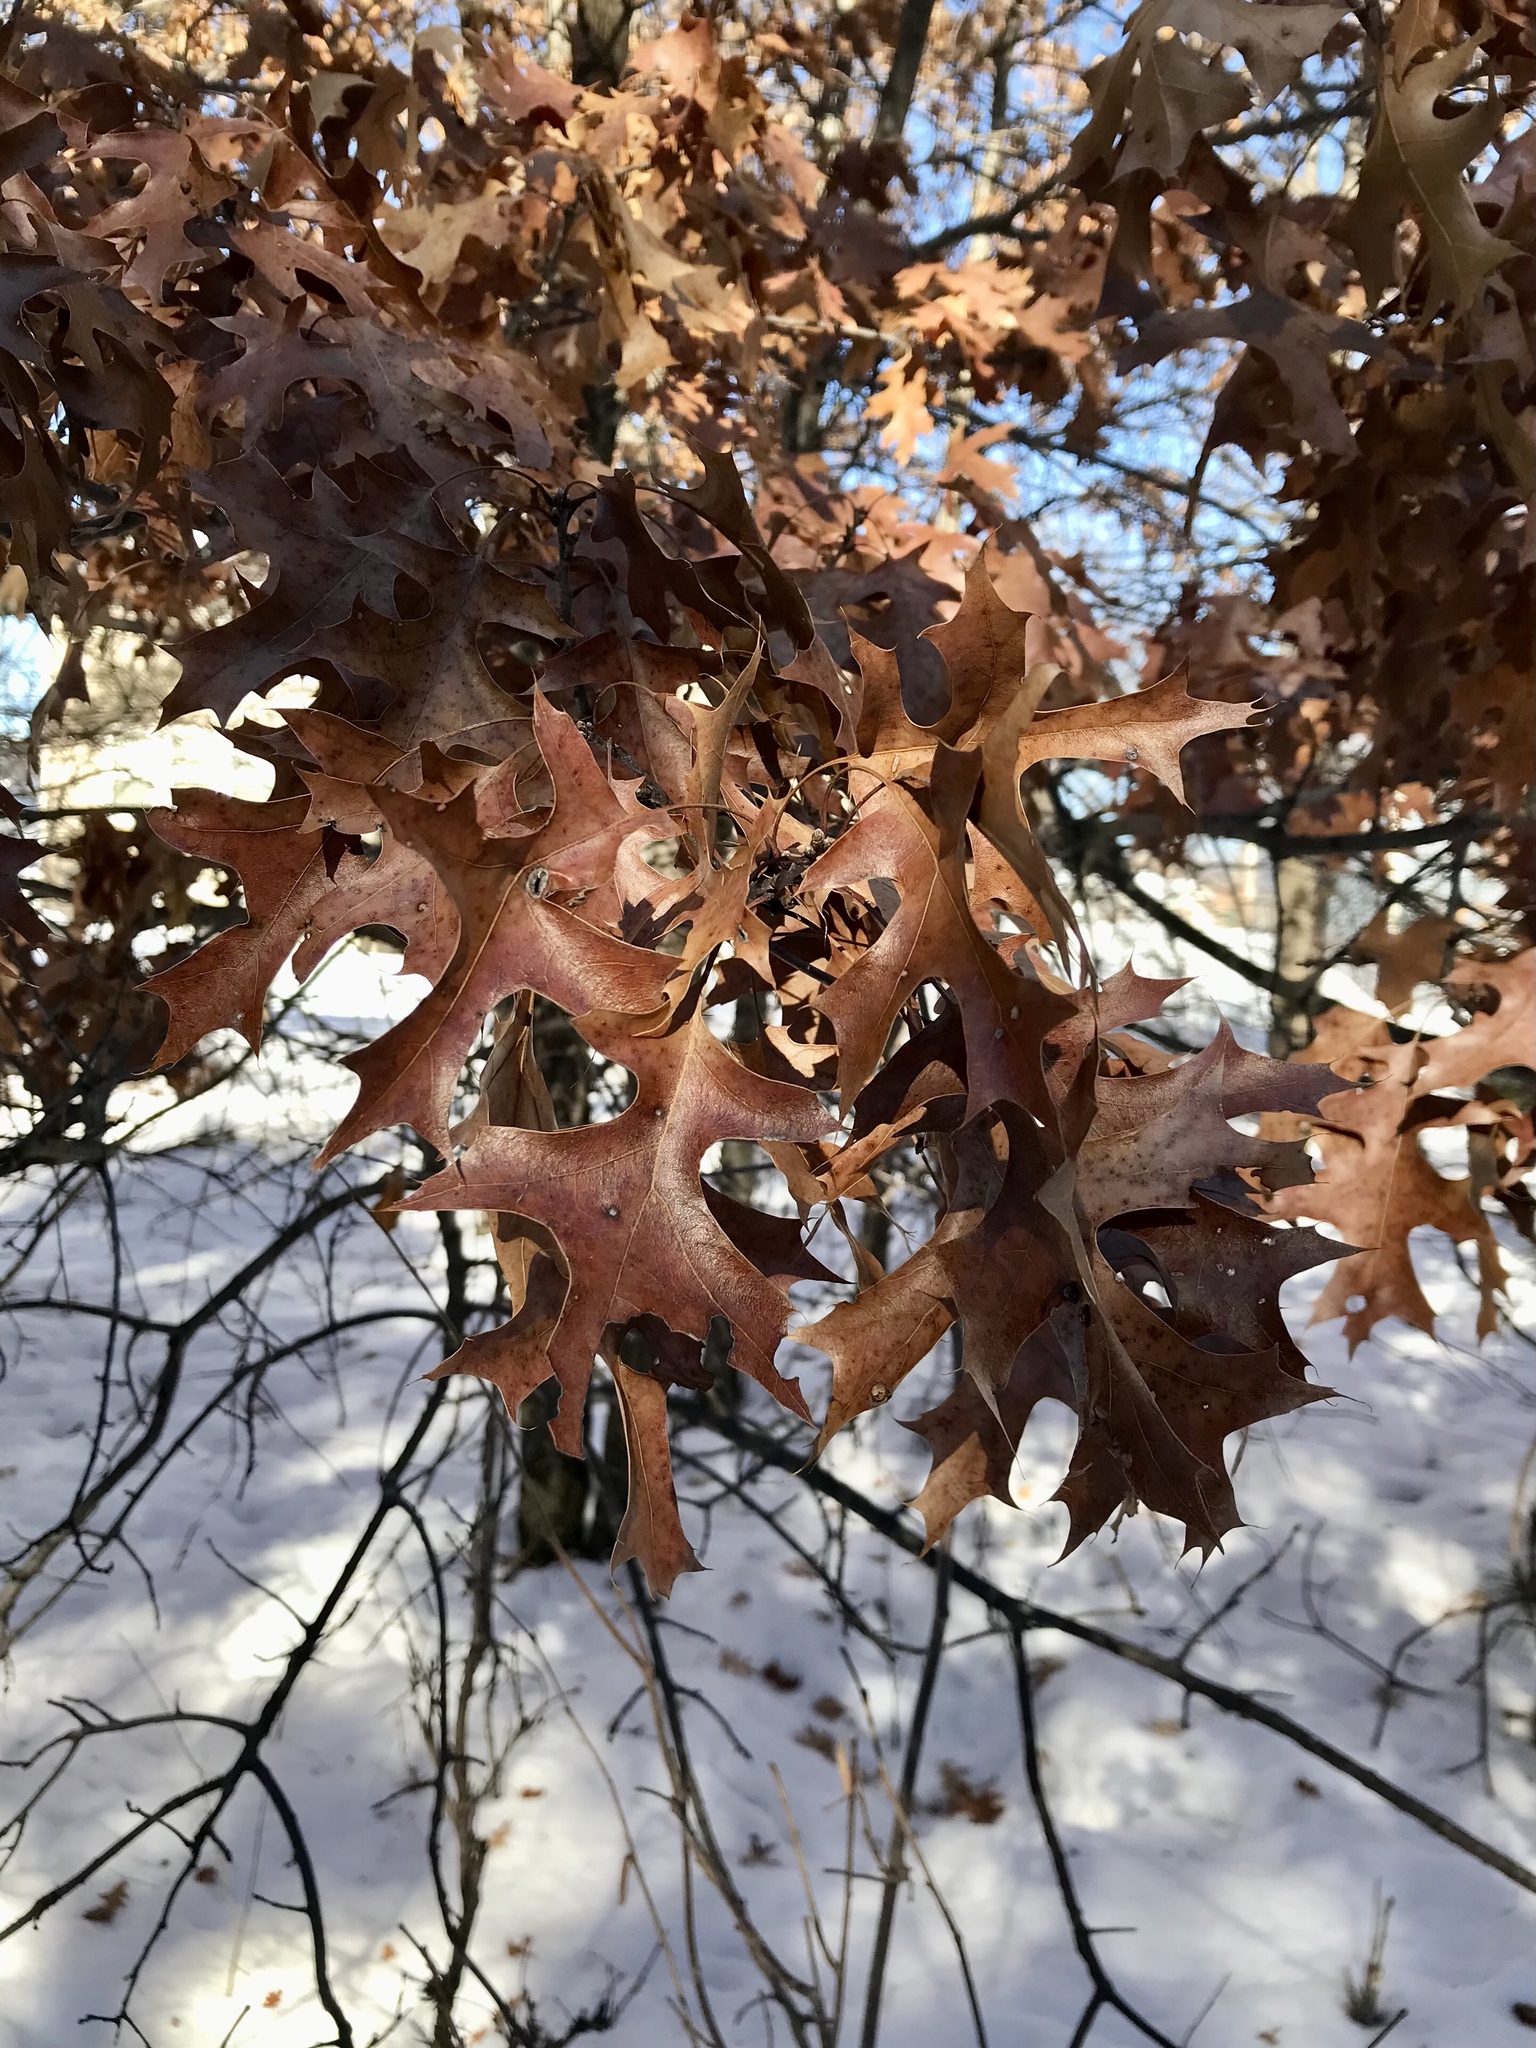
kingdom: Plantae
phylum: Tracheophyta
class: Magnoliopsida
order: Fagales
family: Fagaceae
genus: Quercus
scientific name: Quercus ellipsoidalis
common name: Hill's oak
